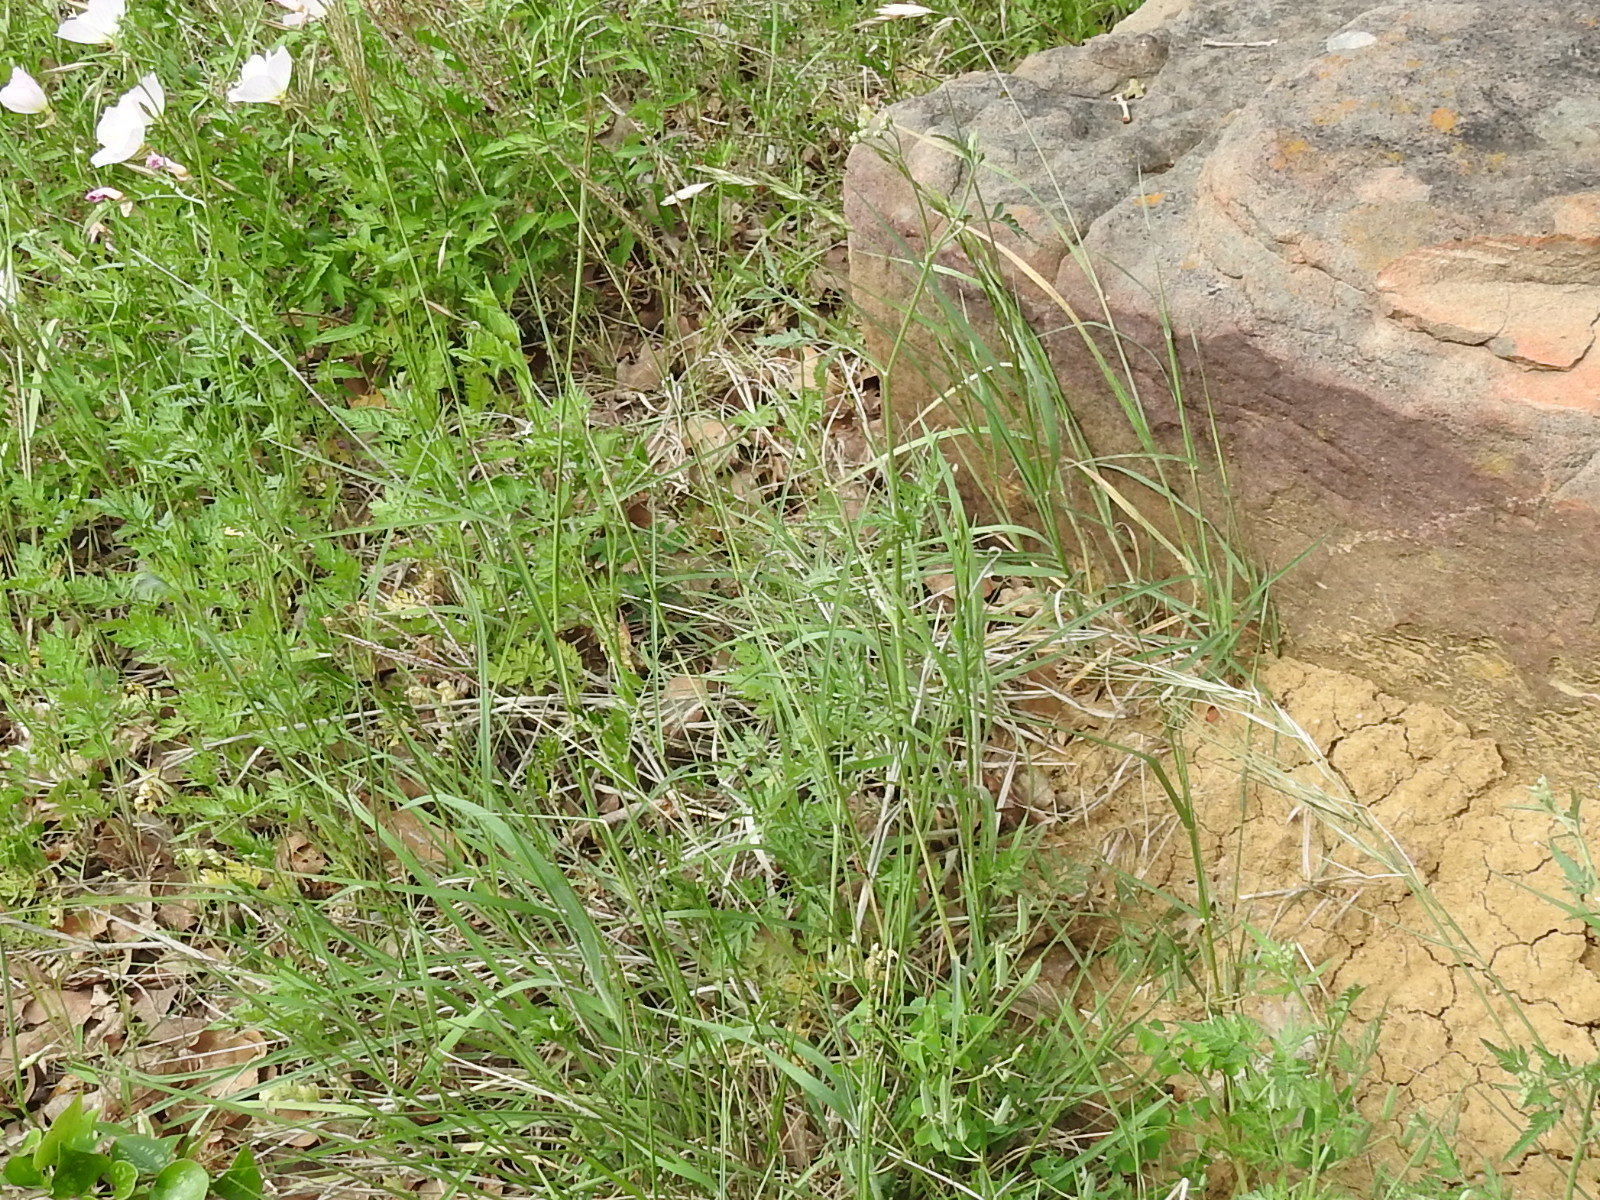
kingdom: Plantae
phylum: Tracheophyta
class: Liliopsida
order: Poales
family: Poaceae
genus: Bothriochloa
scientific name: Bothriochloa ischaemum
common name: Yellow bluestem
